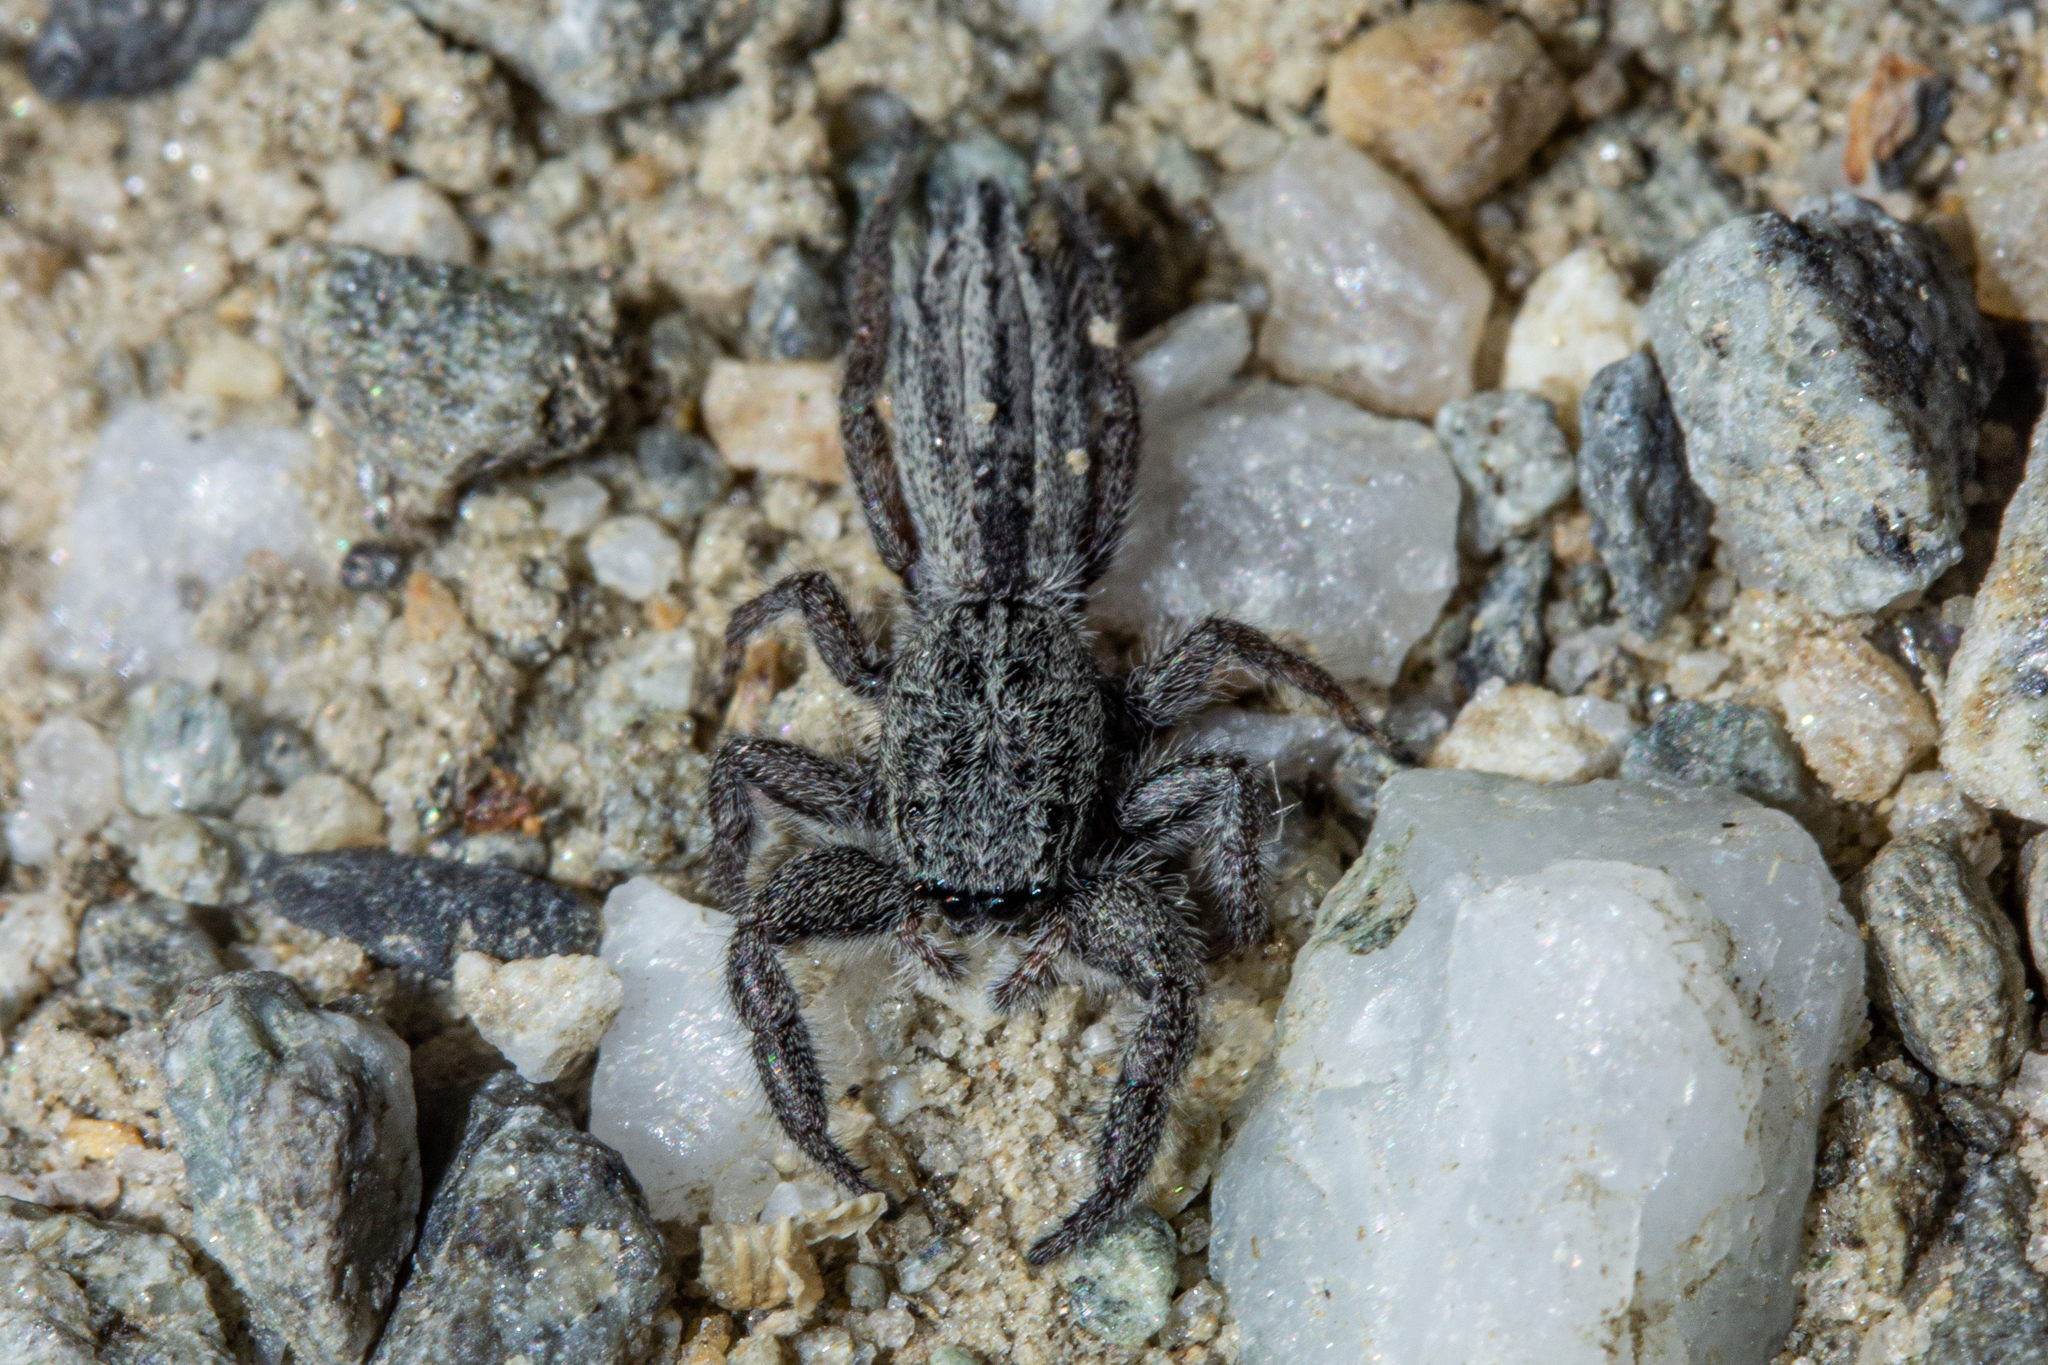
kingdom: Animalia
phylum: Arthropoda
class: Arachnida
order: Araneae
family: Salticidae
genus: Holoplatys
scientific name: Holoplatys apressus
